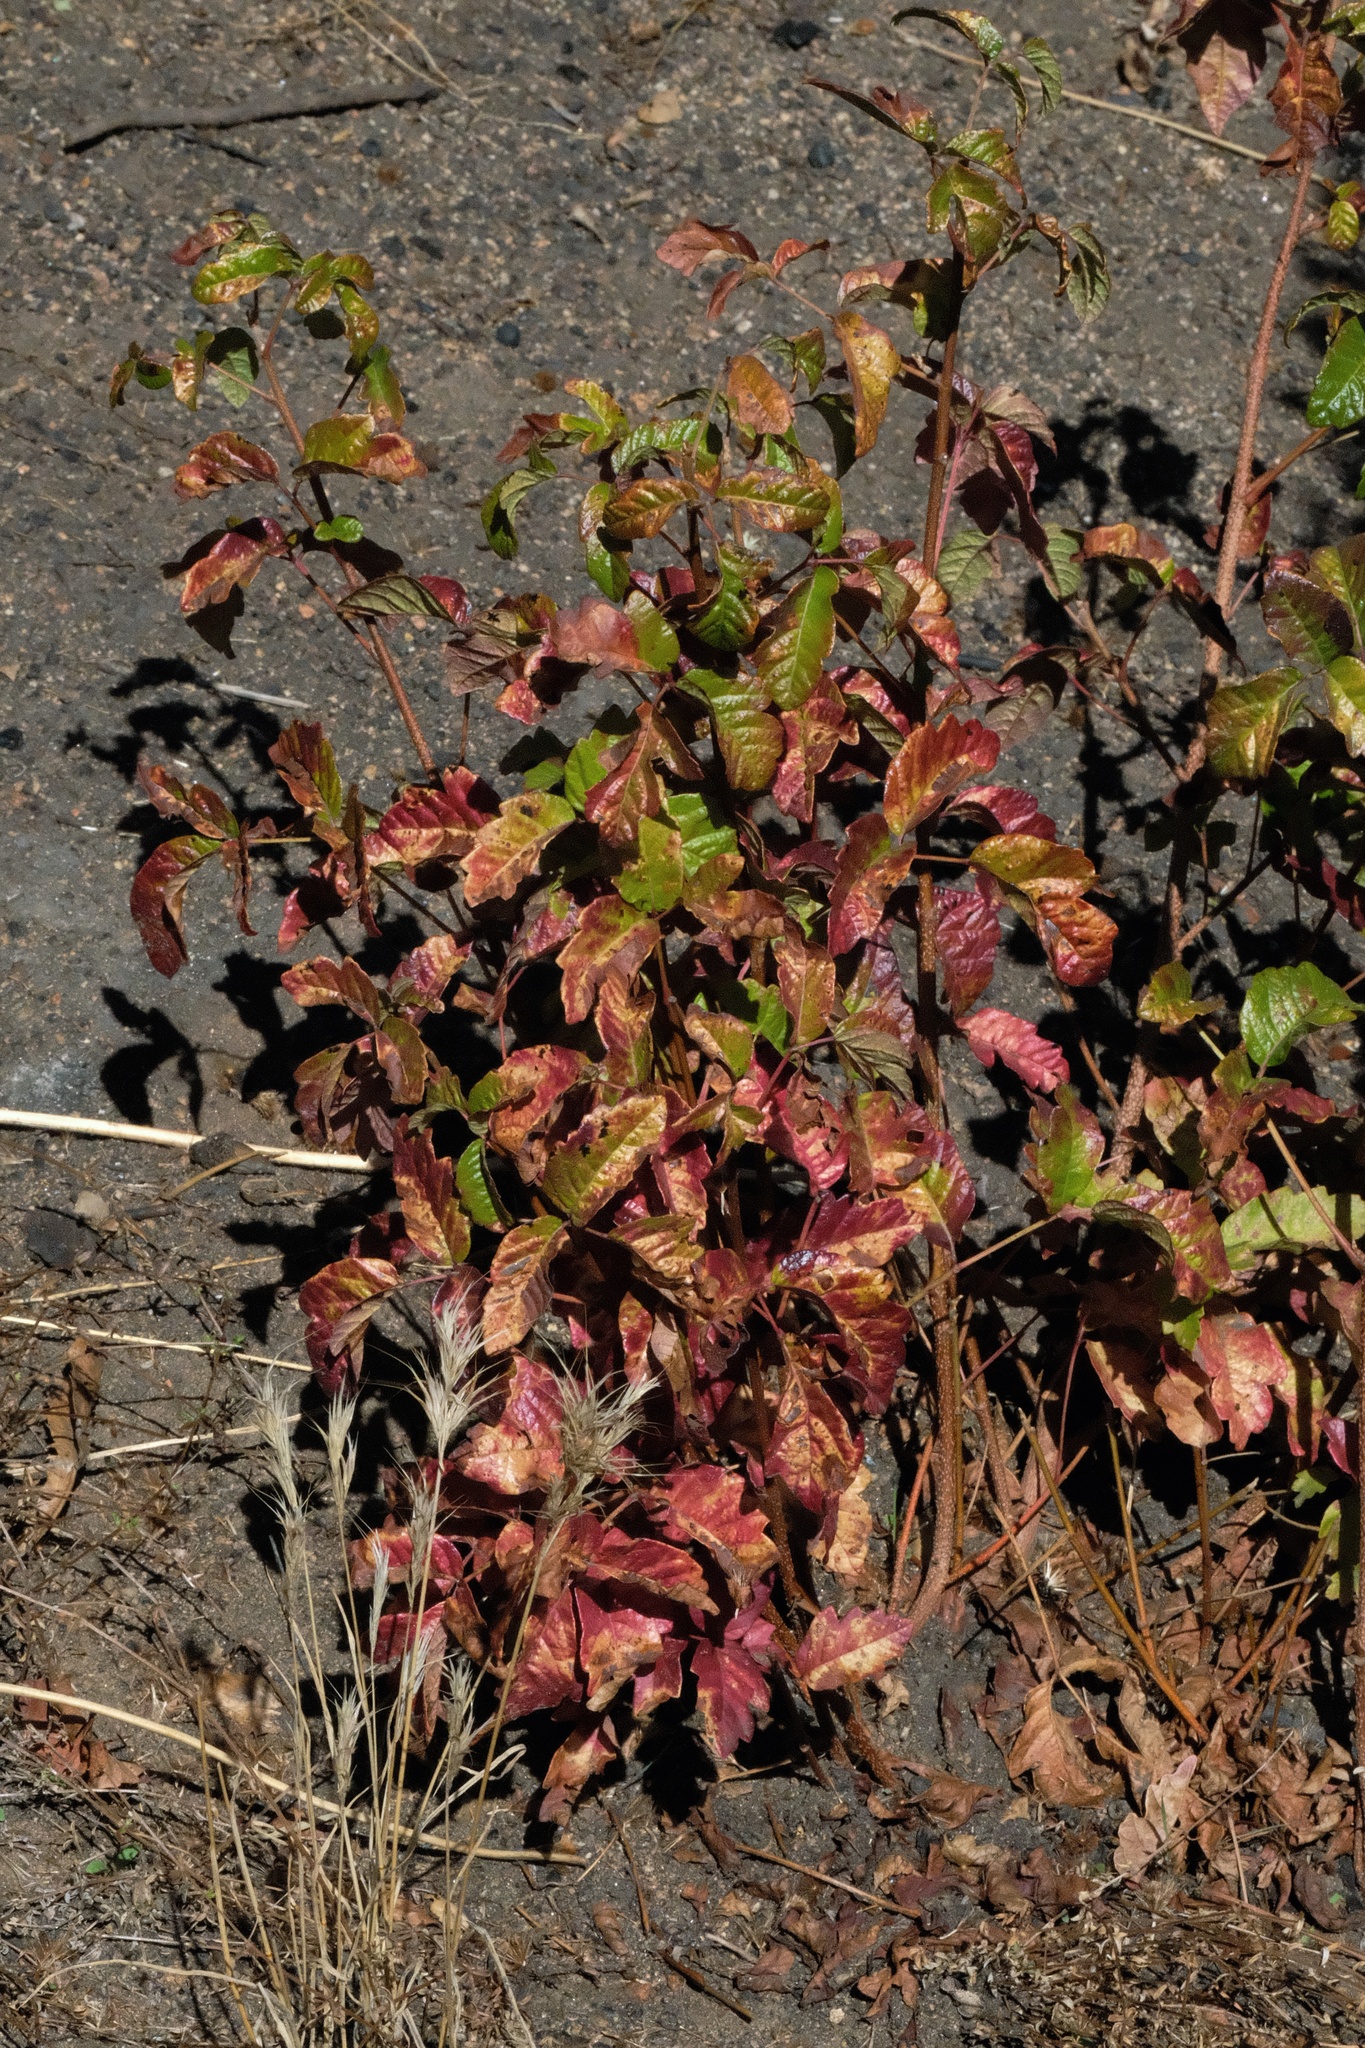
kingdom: Plantae
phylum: Tracheophyta
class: Magnoliopsida
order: Sapindales
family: Anacardiaceae
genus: Toxicodendron
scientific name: Toxicodendron diversilobum
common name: Pacific poison-oak
